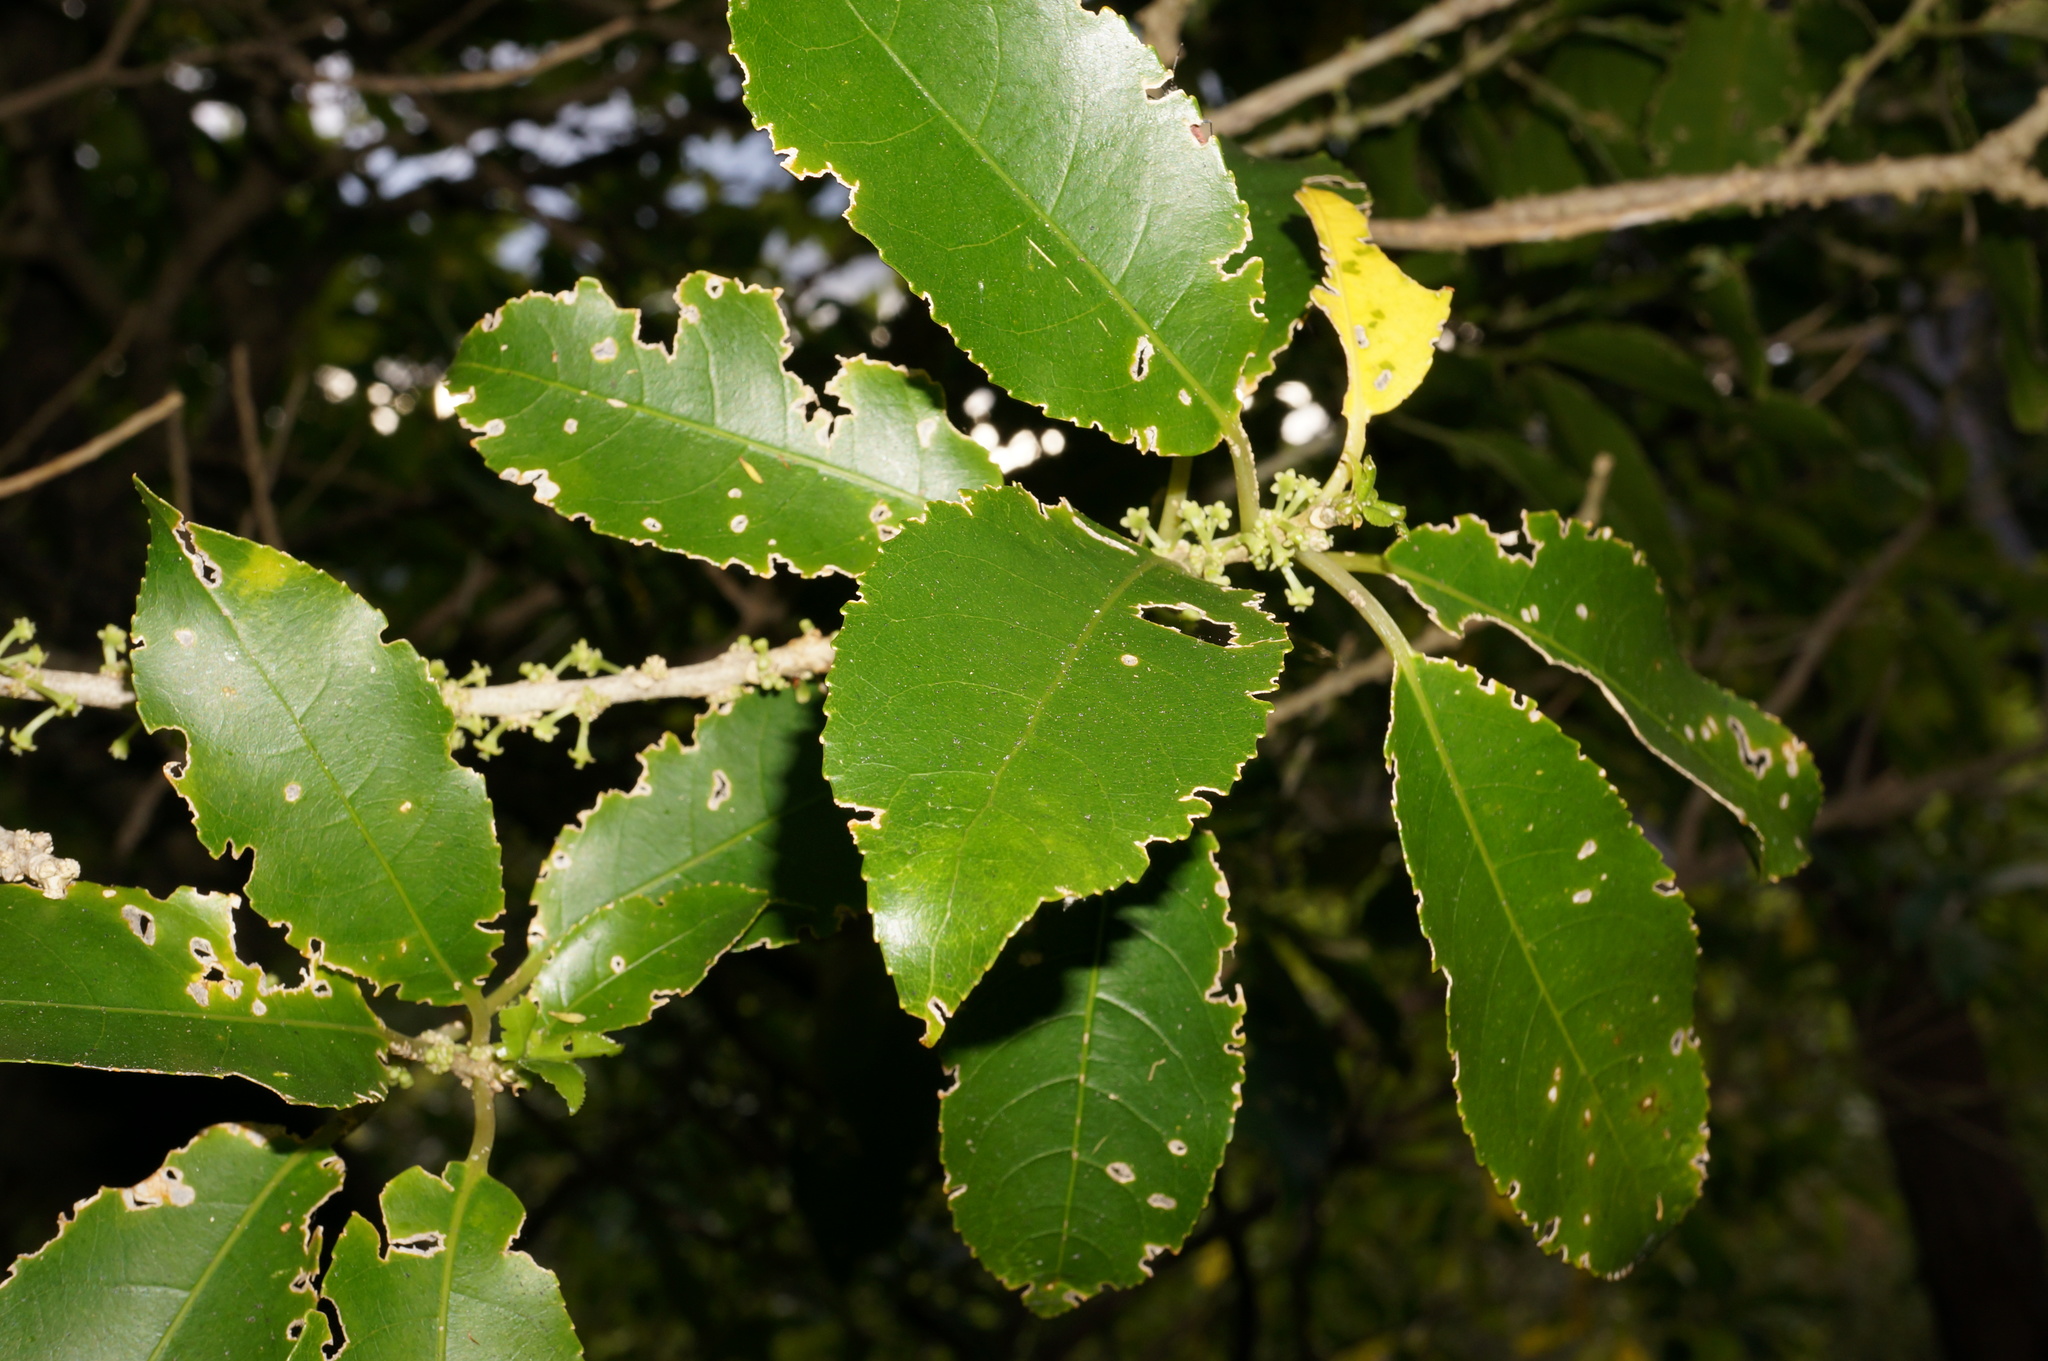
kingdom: Plantae
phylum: Tracheophyta
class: Magnoliopsida
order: Malpighiales
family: Violaceae
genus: Melicytus
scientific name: Melicytus ramiflorus
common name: Mahoe
